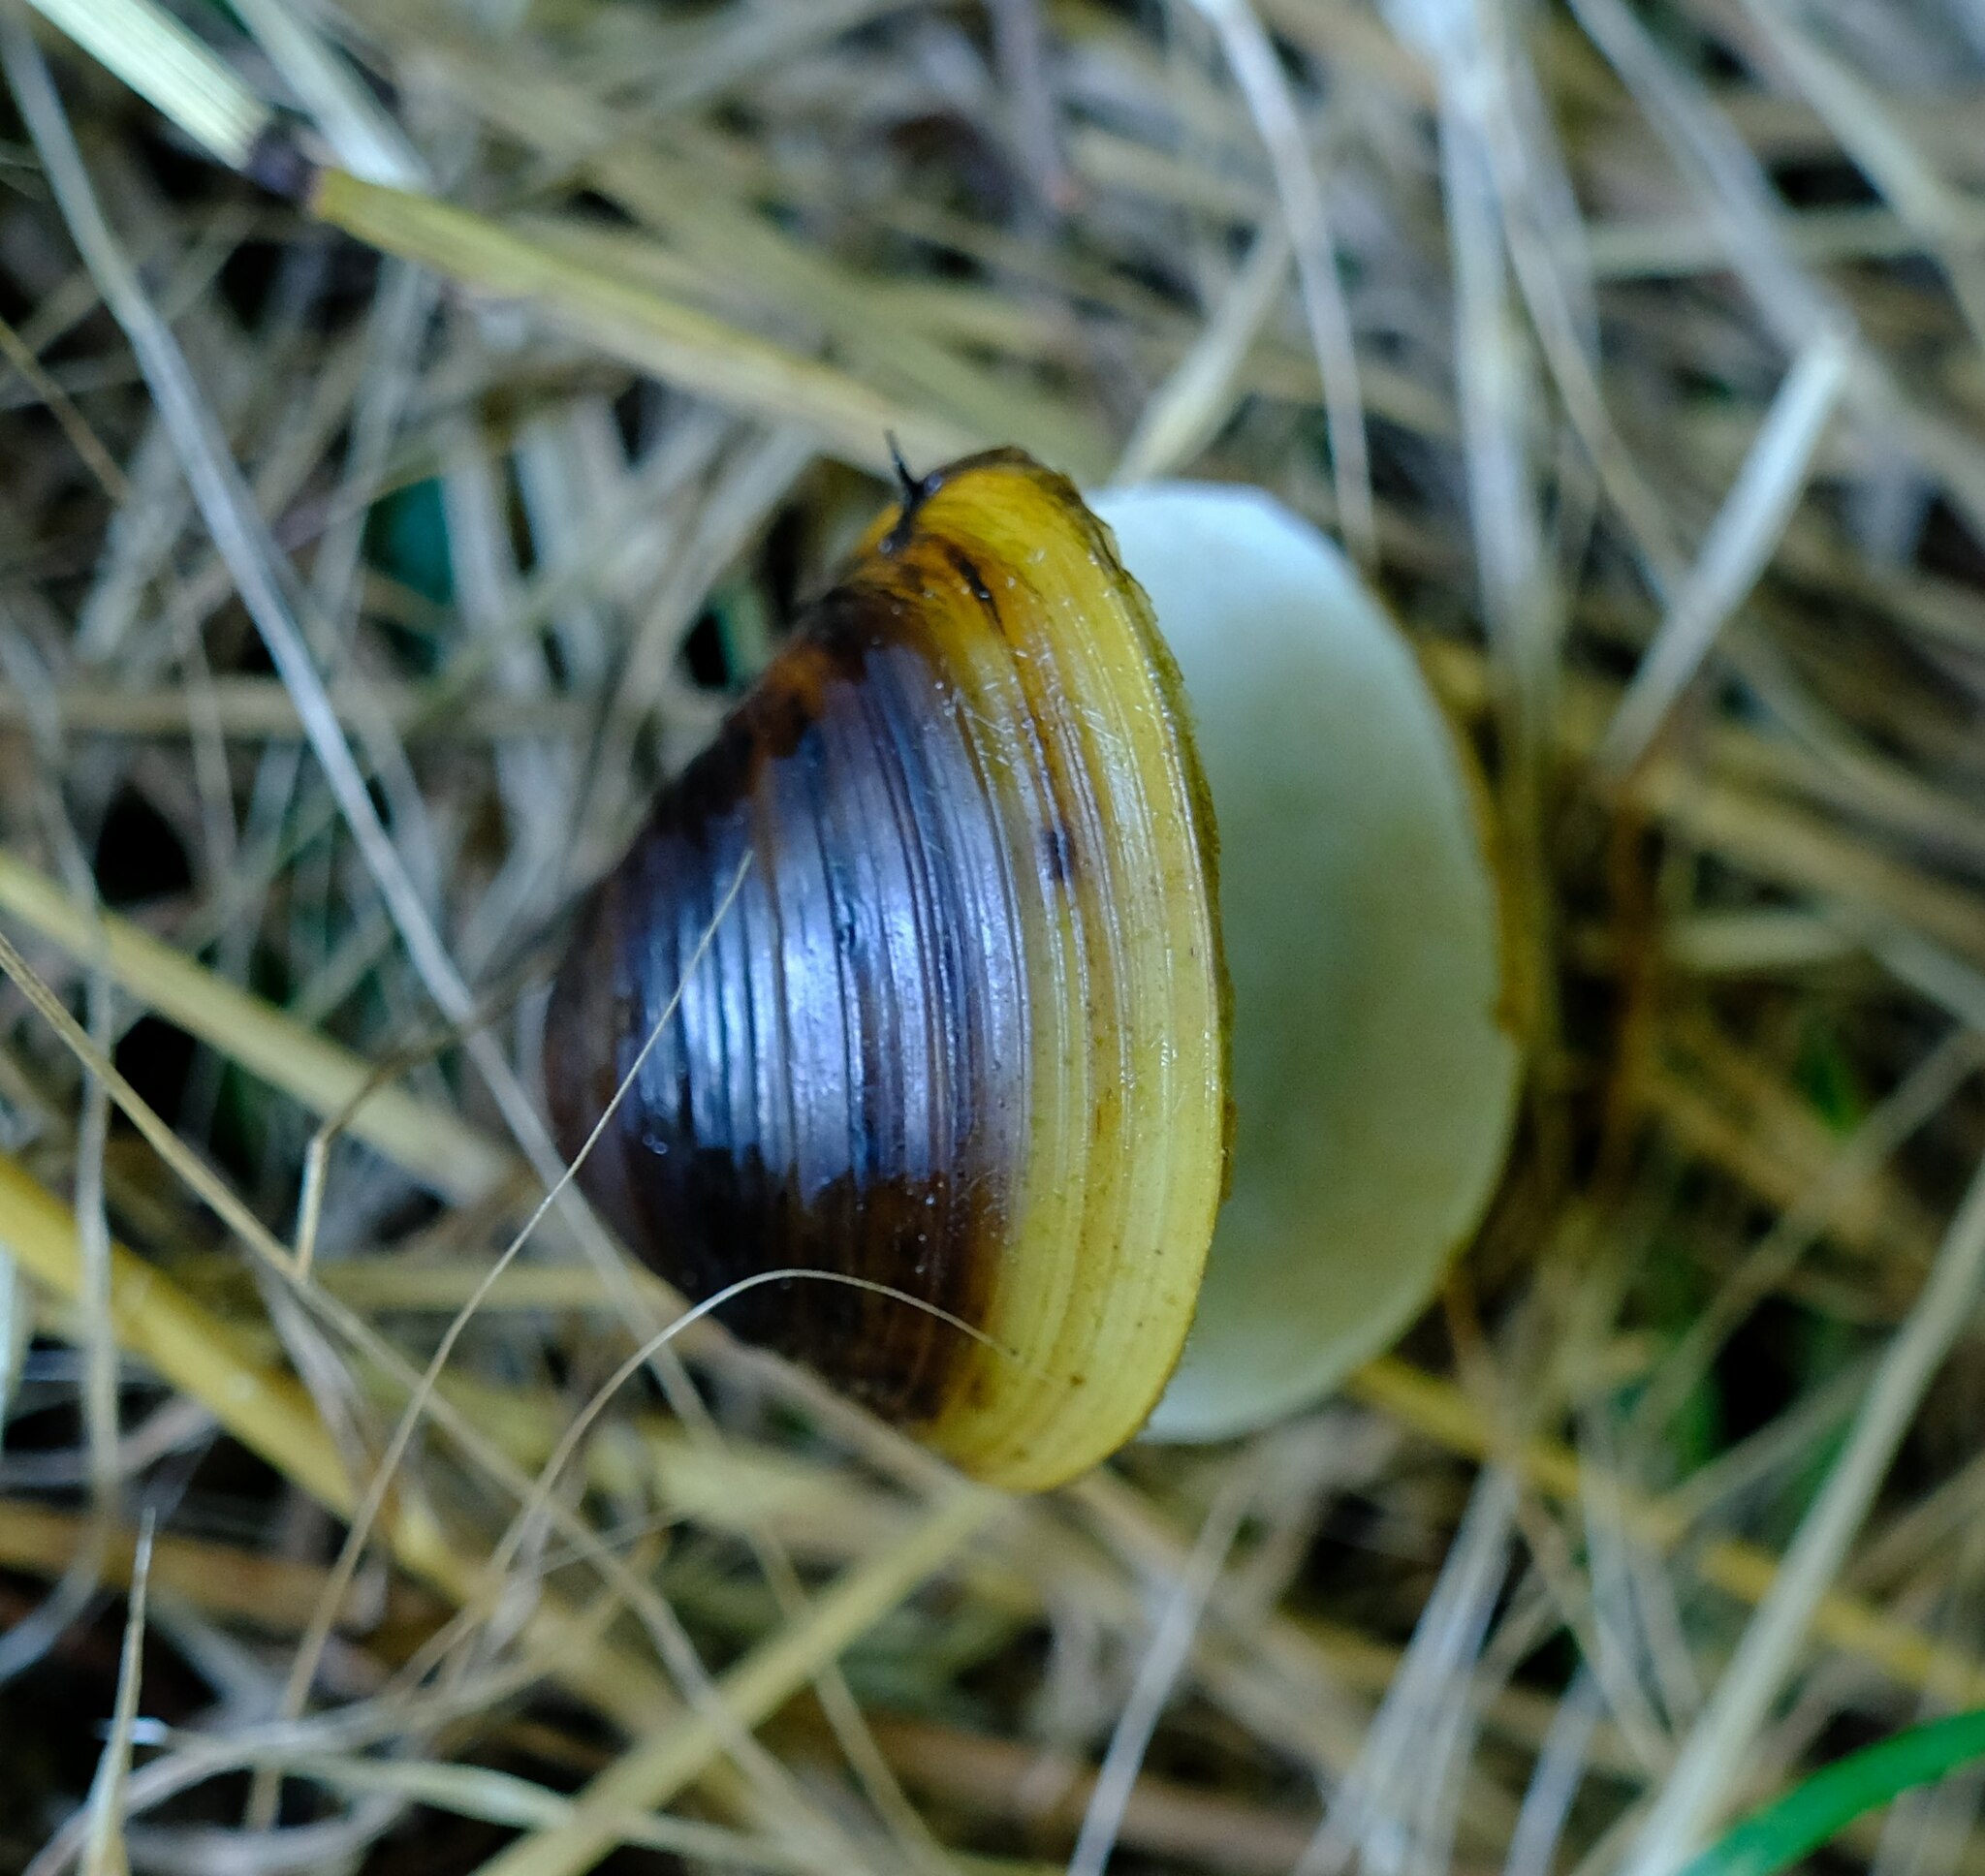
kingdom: Animalia
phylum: Mollusca
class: Bivalvia
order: Venerida
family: Cyrenidae
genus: Corbicula
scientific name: Corbicula fluminea
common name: Asian clam
